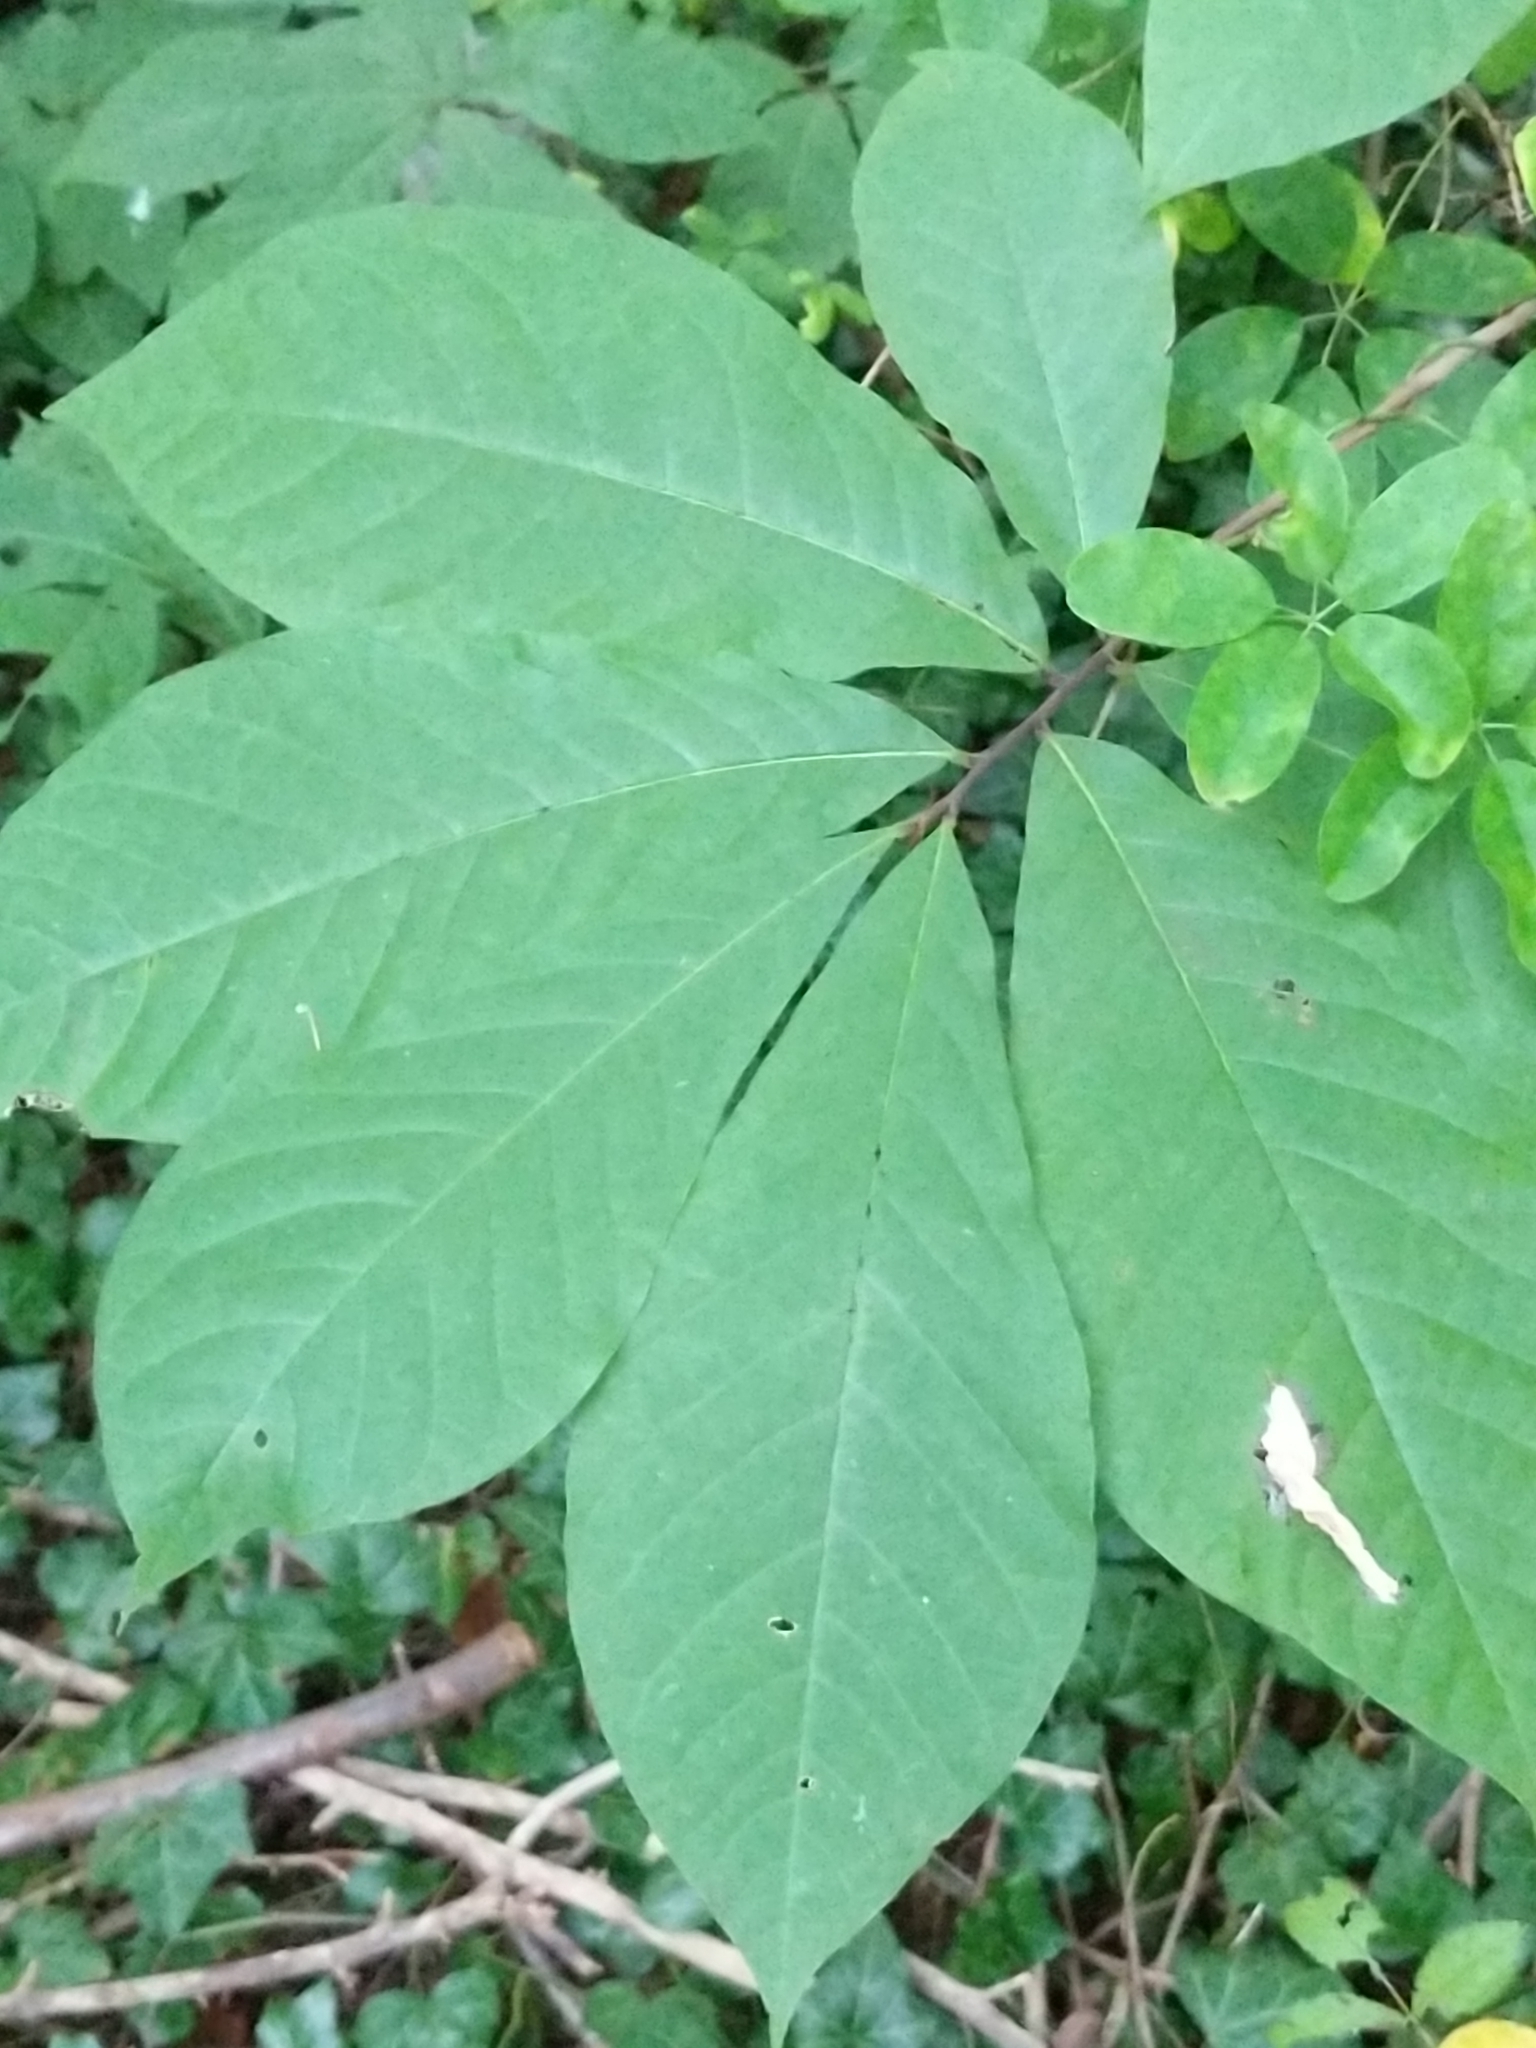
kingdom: Plantae
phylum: Tracheophyta
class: Magnoliopsida
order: Magnoliales
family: Annonaceae
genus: Asimina
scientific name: Asimina triloba
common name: Dog-banana
